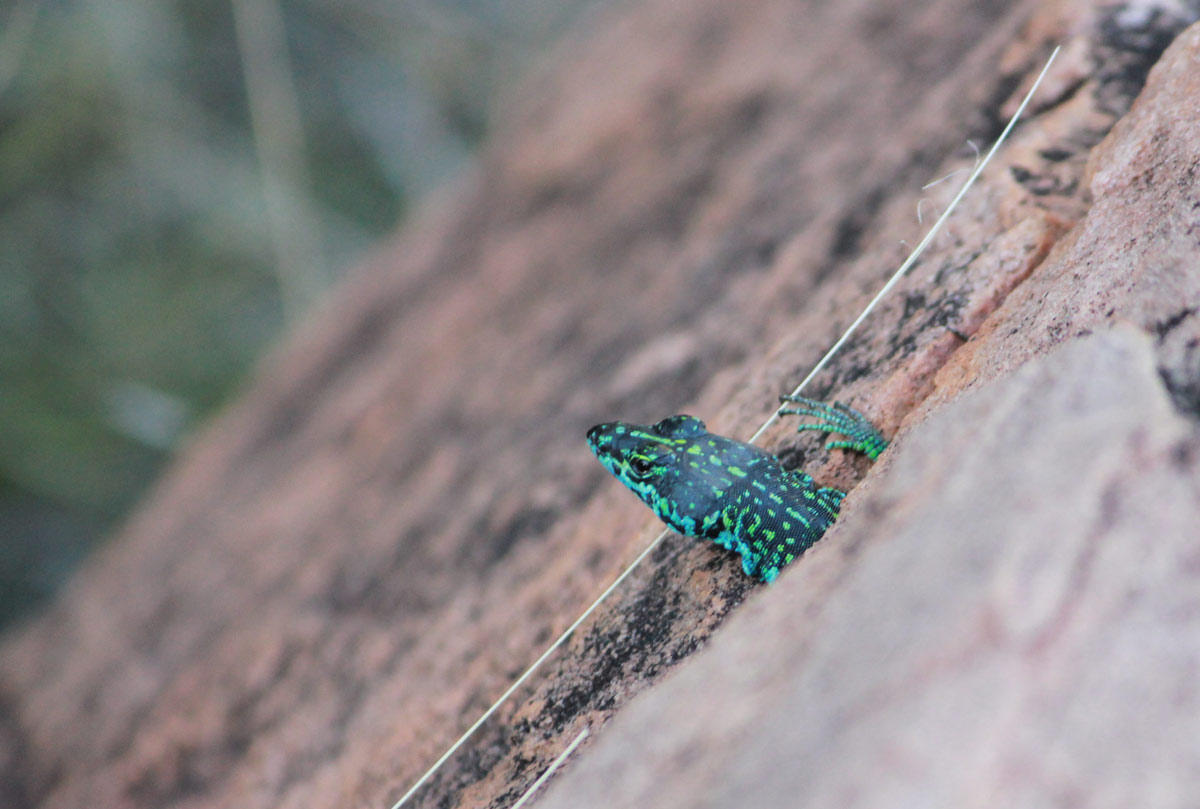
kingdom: Animalia
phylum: Chordata
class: Squamata
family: Cordylidae
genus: Platysaurus
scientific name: Platysaurus relictus
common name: Soutpansberg flat lizard
